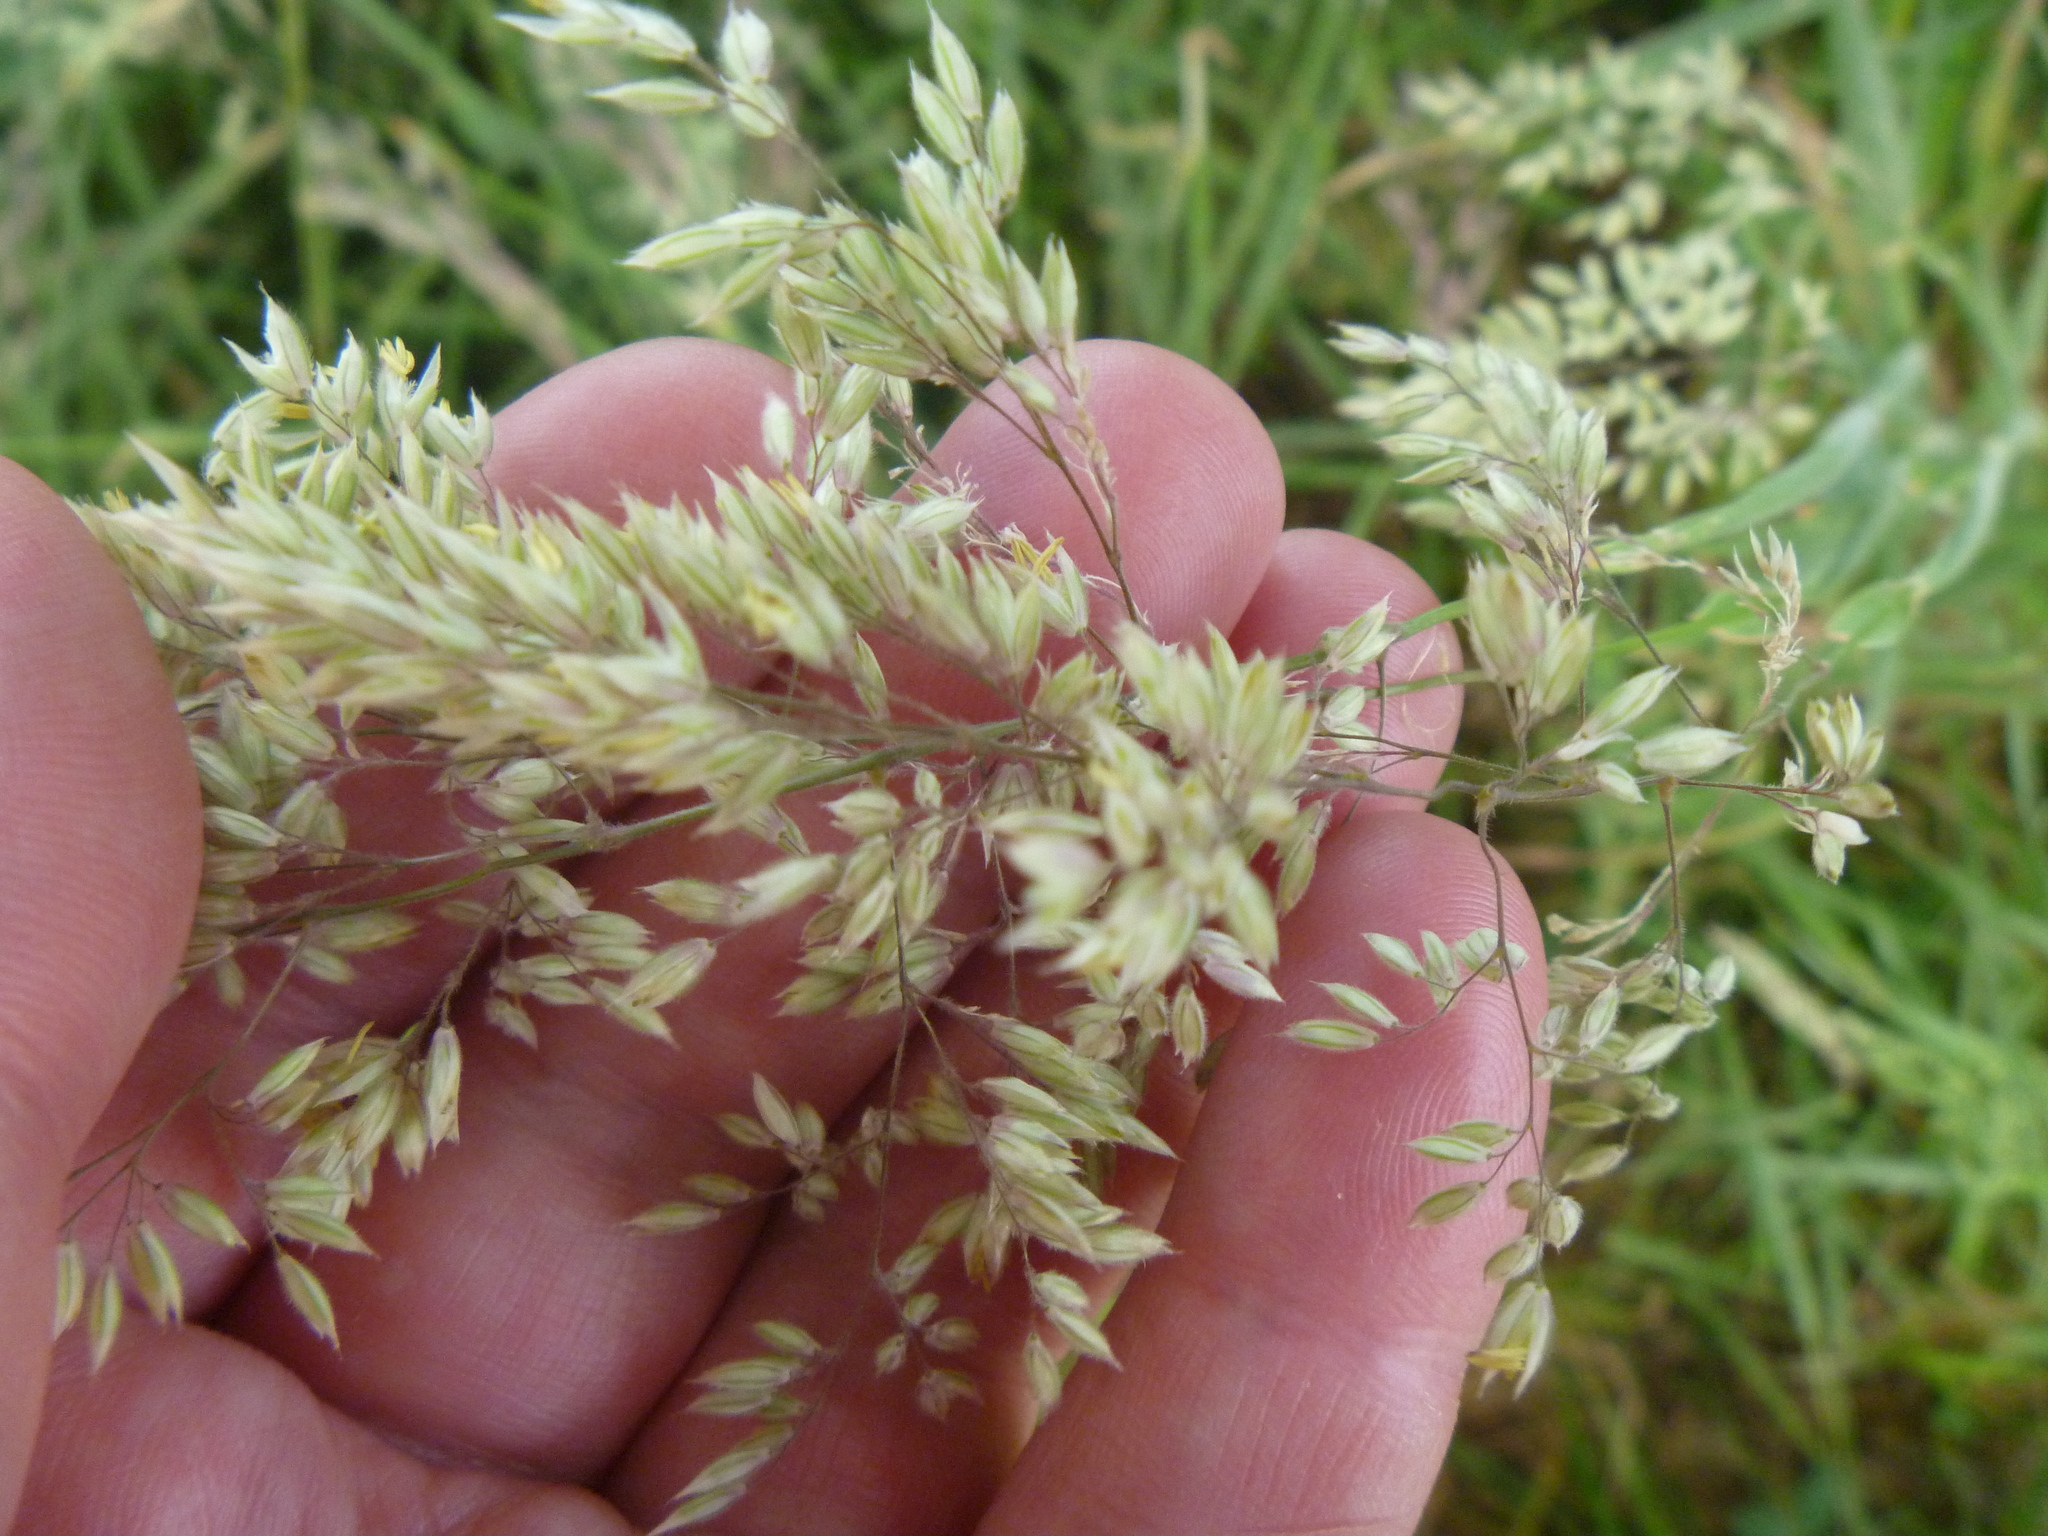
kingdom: Plantae
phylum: Tracheophyta
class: Liliopsida
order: Poales
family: Poaceae
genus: Holcus
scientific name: Holcus lanatus
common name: Yorkshire-fog
